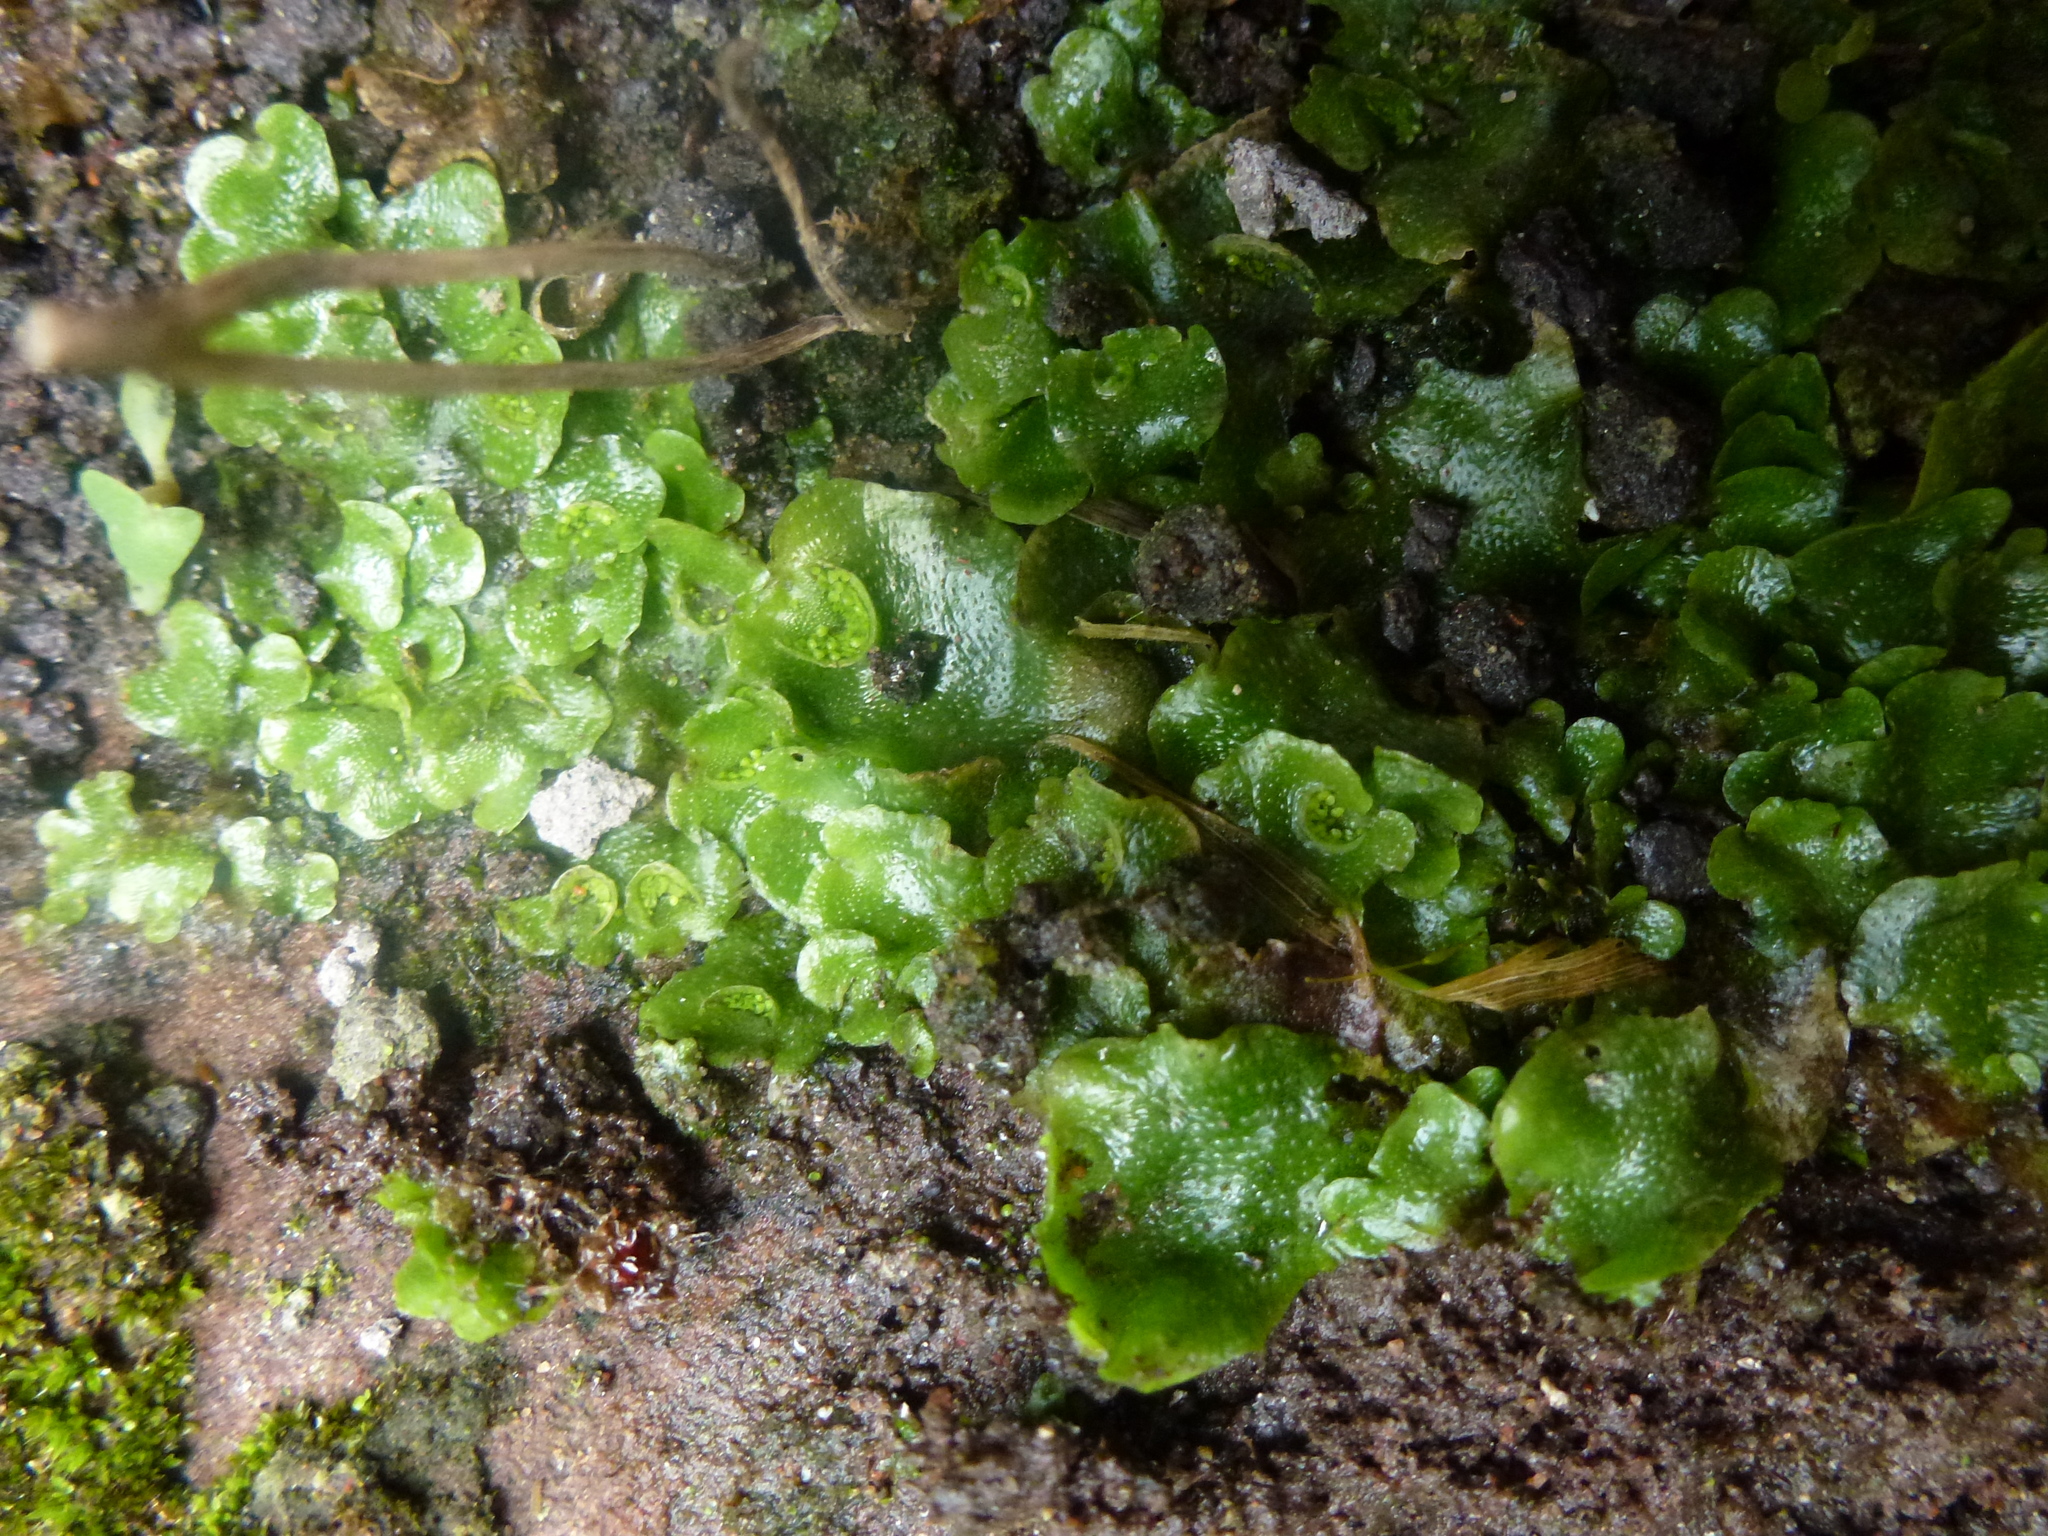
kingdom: Plantae
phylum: Marchantiophyta
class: Marchantiopsida
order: Lunulariales
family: Lunulariaceae
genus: Lunularia
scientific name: Lunularia cruciata
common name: Crescent-cup liverwort
